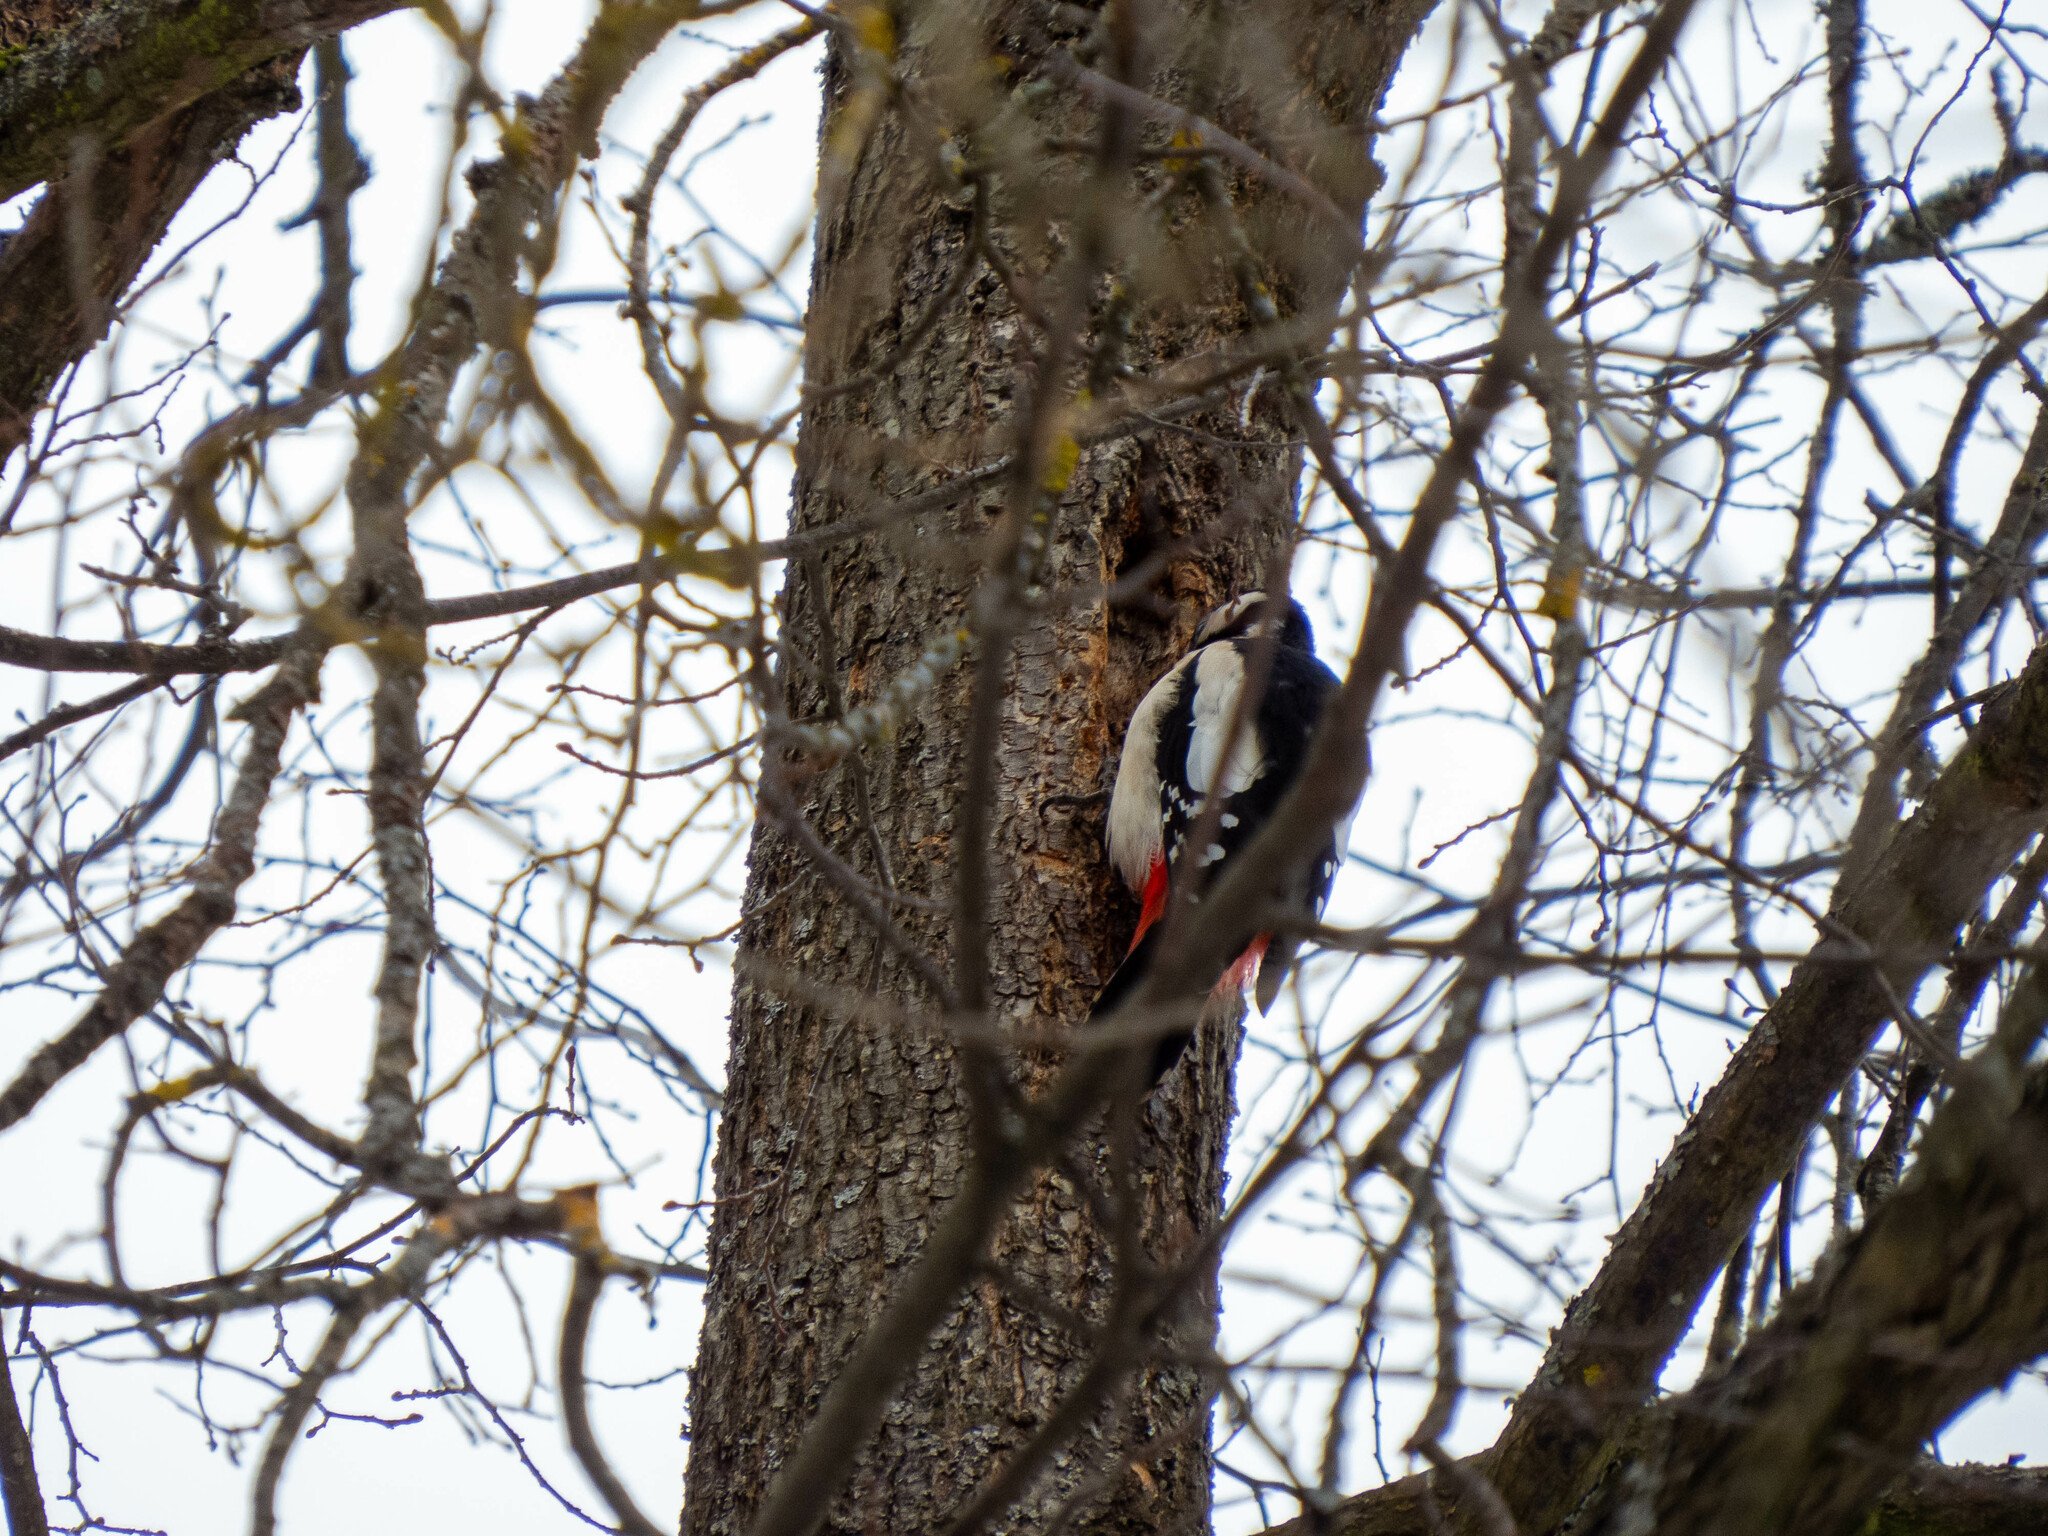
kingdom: Animalia
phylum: Chordata
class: Aves
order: Piciformes
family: Picidae
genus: Dendrocopos
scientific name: Dendrocopos major
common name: Great spotted woodpecker
